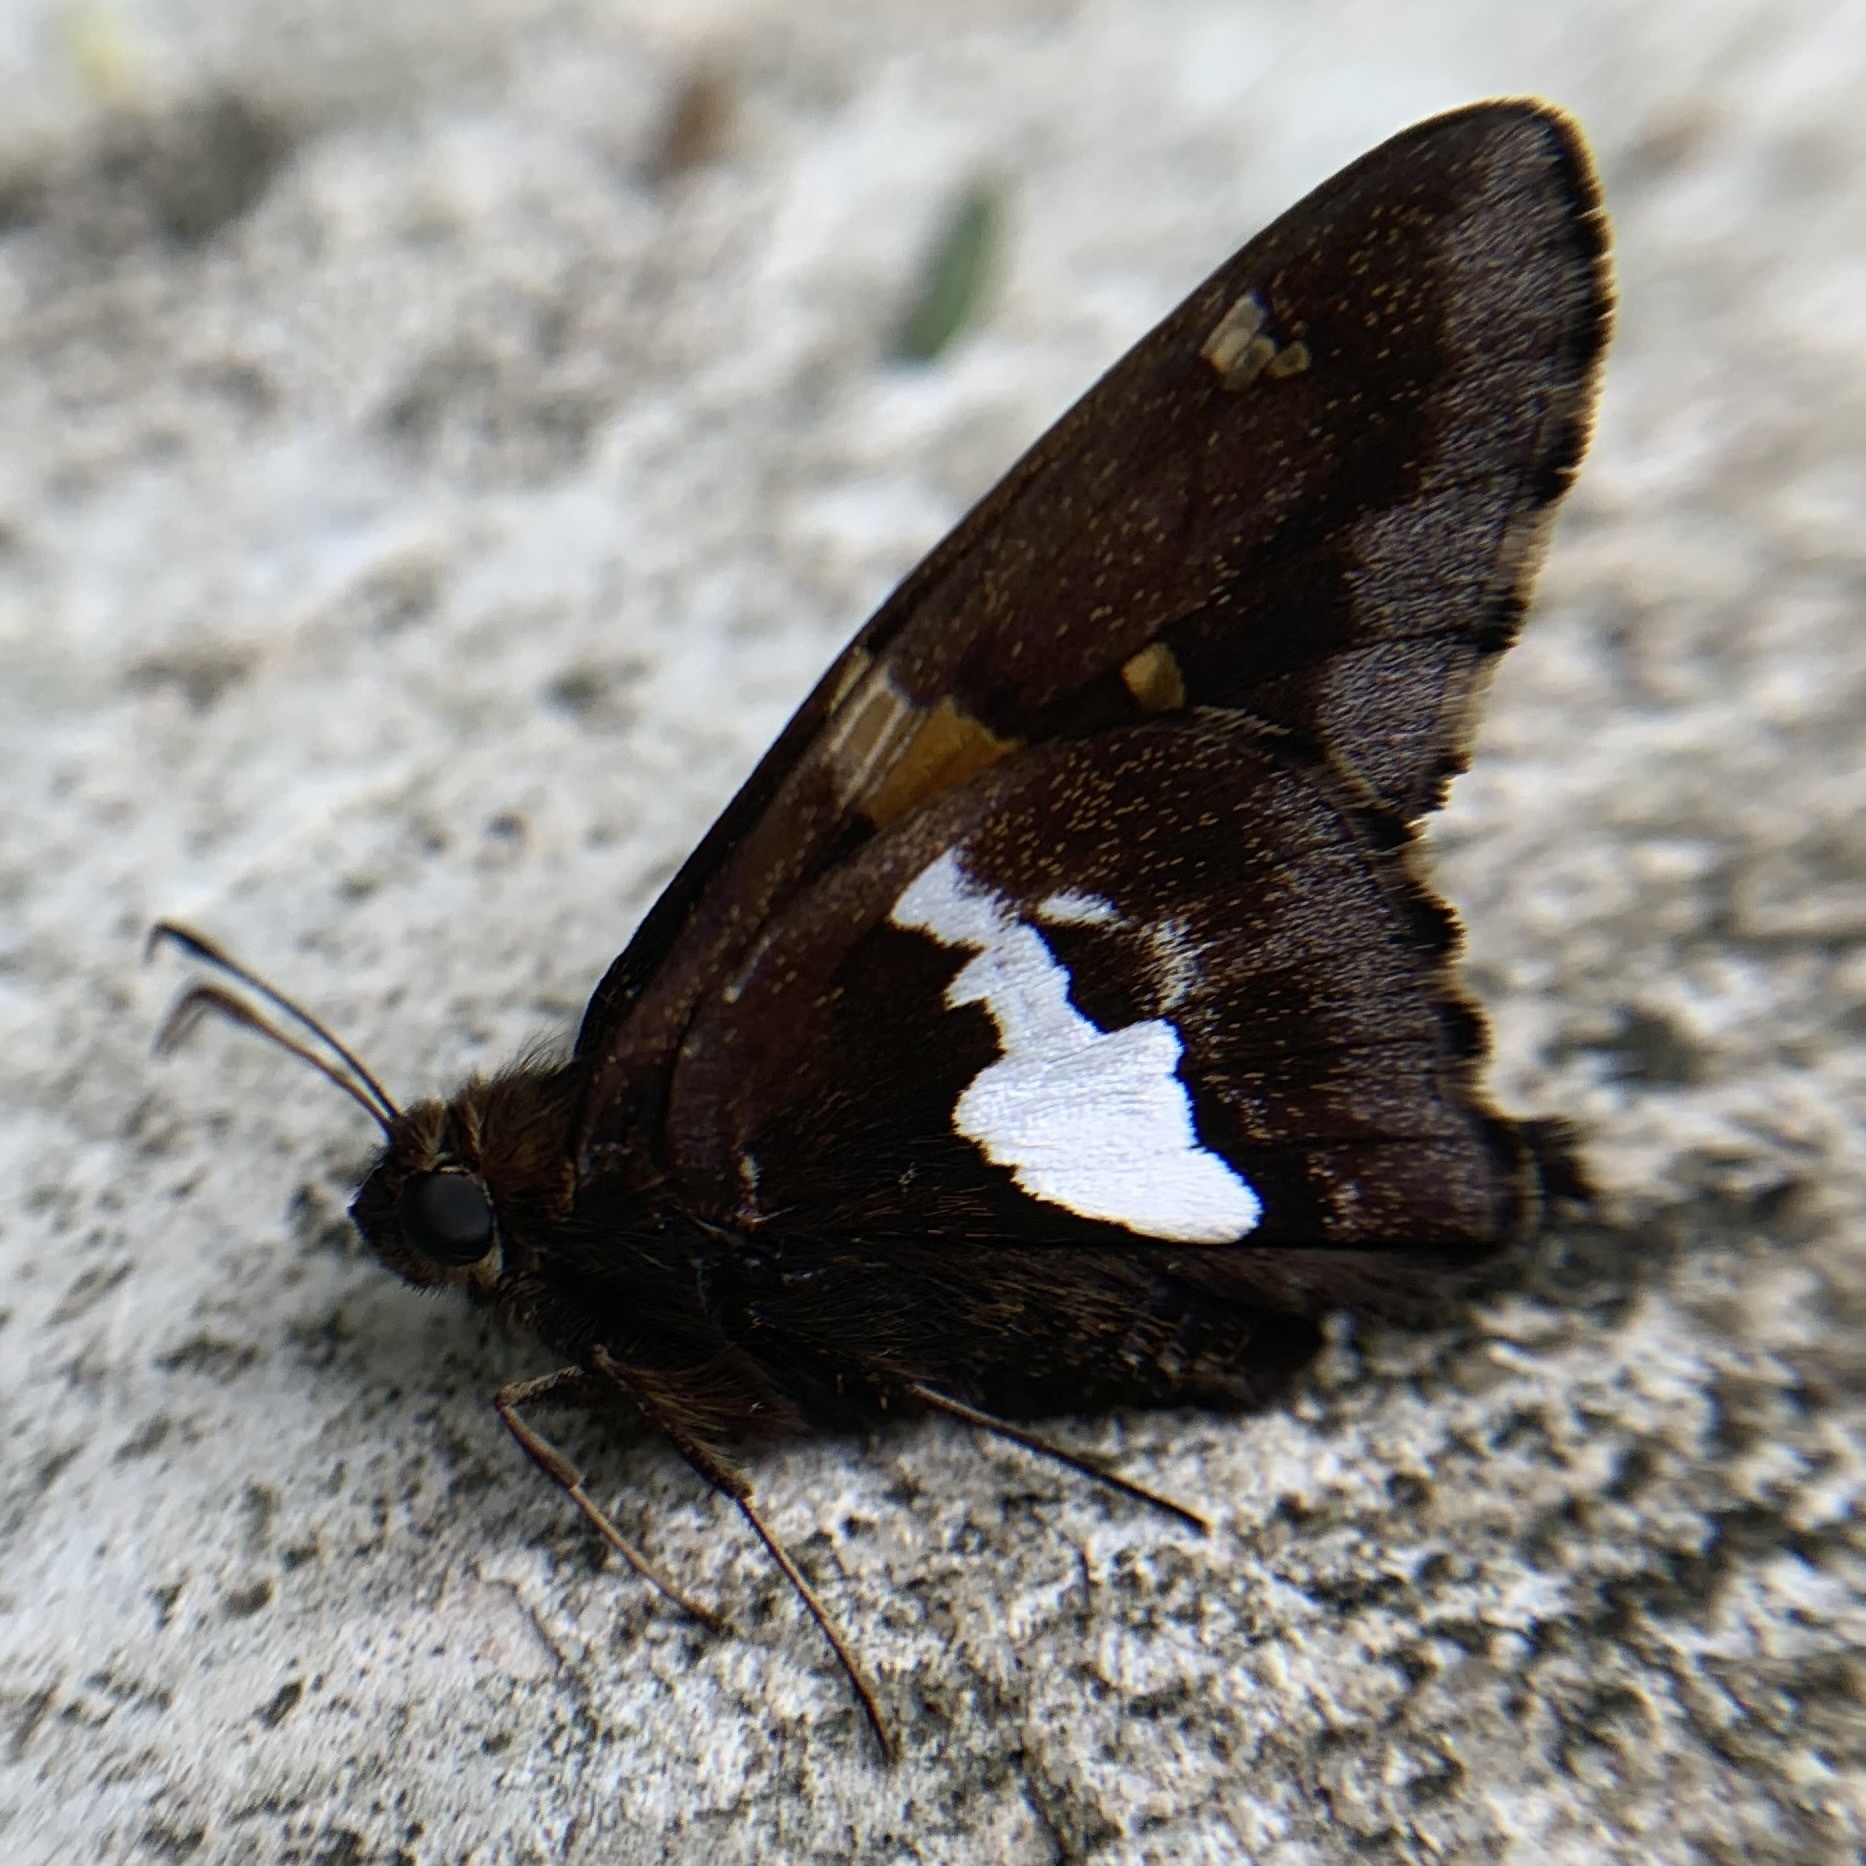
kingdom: Animalia
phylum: Arthropoda
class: Insecta
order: Lepidoptera
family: Hesperiidae
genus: Epargyreus
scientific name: Epargyreus clarus
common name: Silver-spotted skipper
